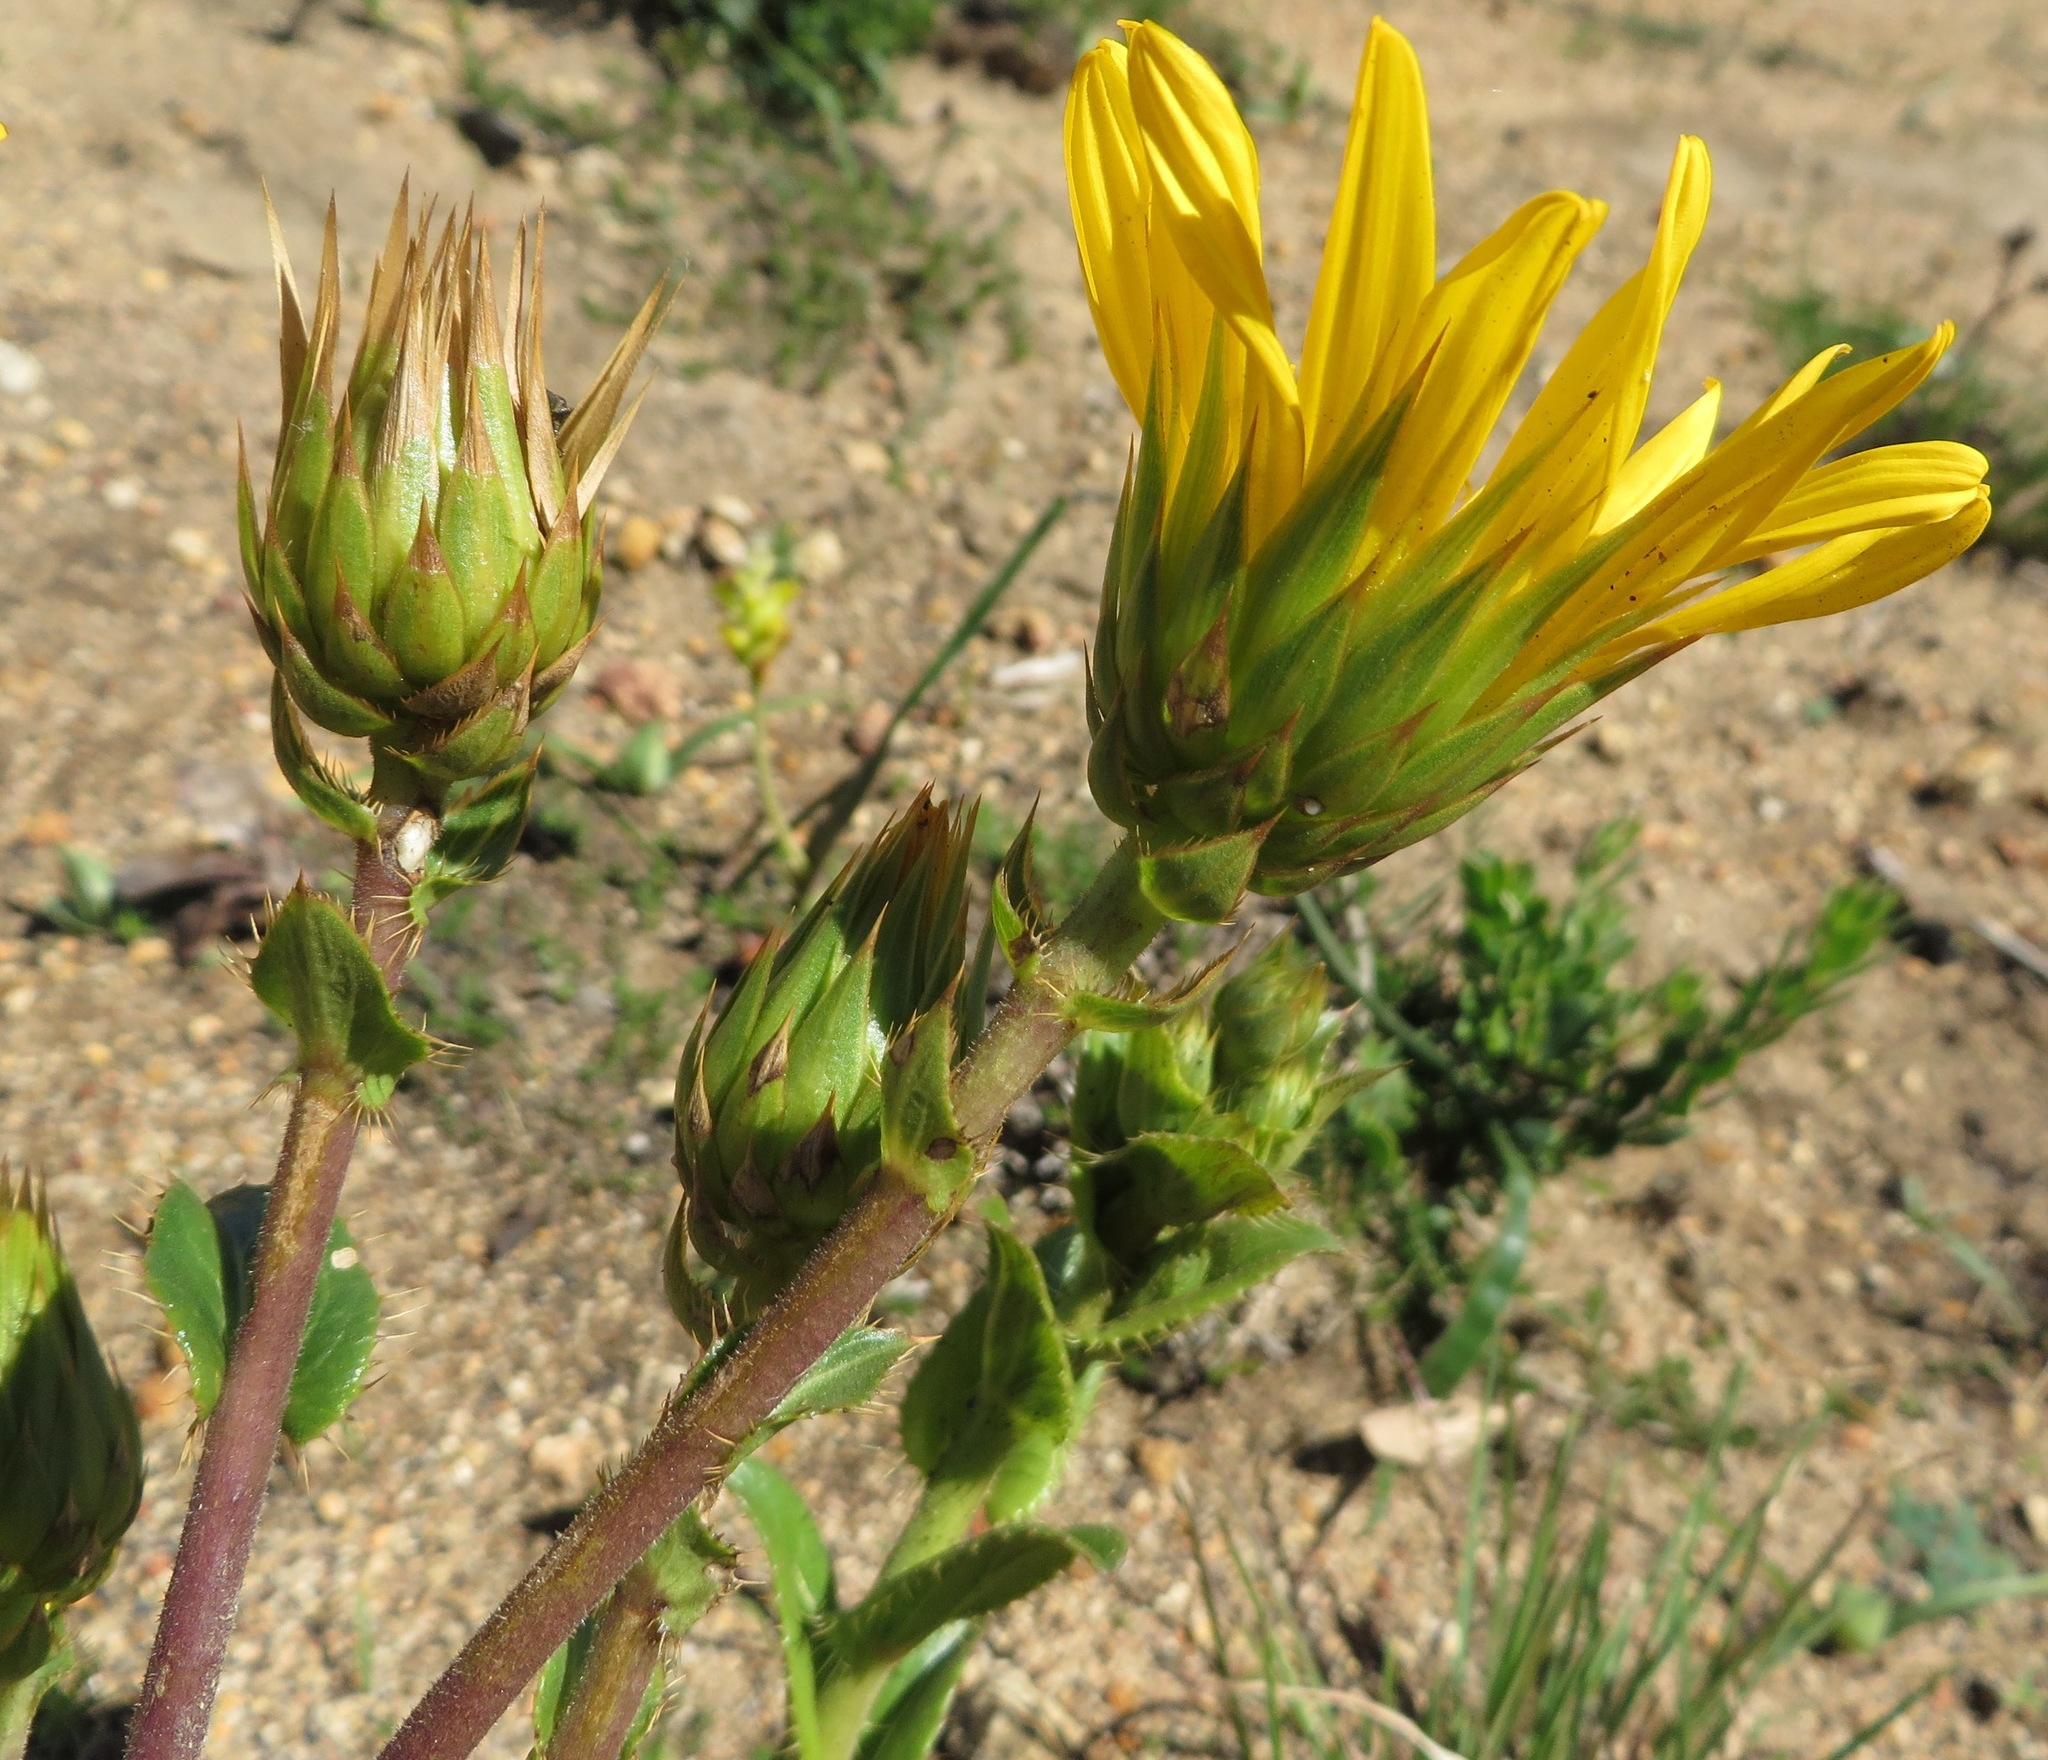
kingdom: Plantae
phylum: Tracheophyta
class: Magnoliopsida
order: Asterales
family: Asteraceae
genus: Berkheya
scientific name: Berkheya herbacea
